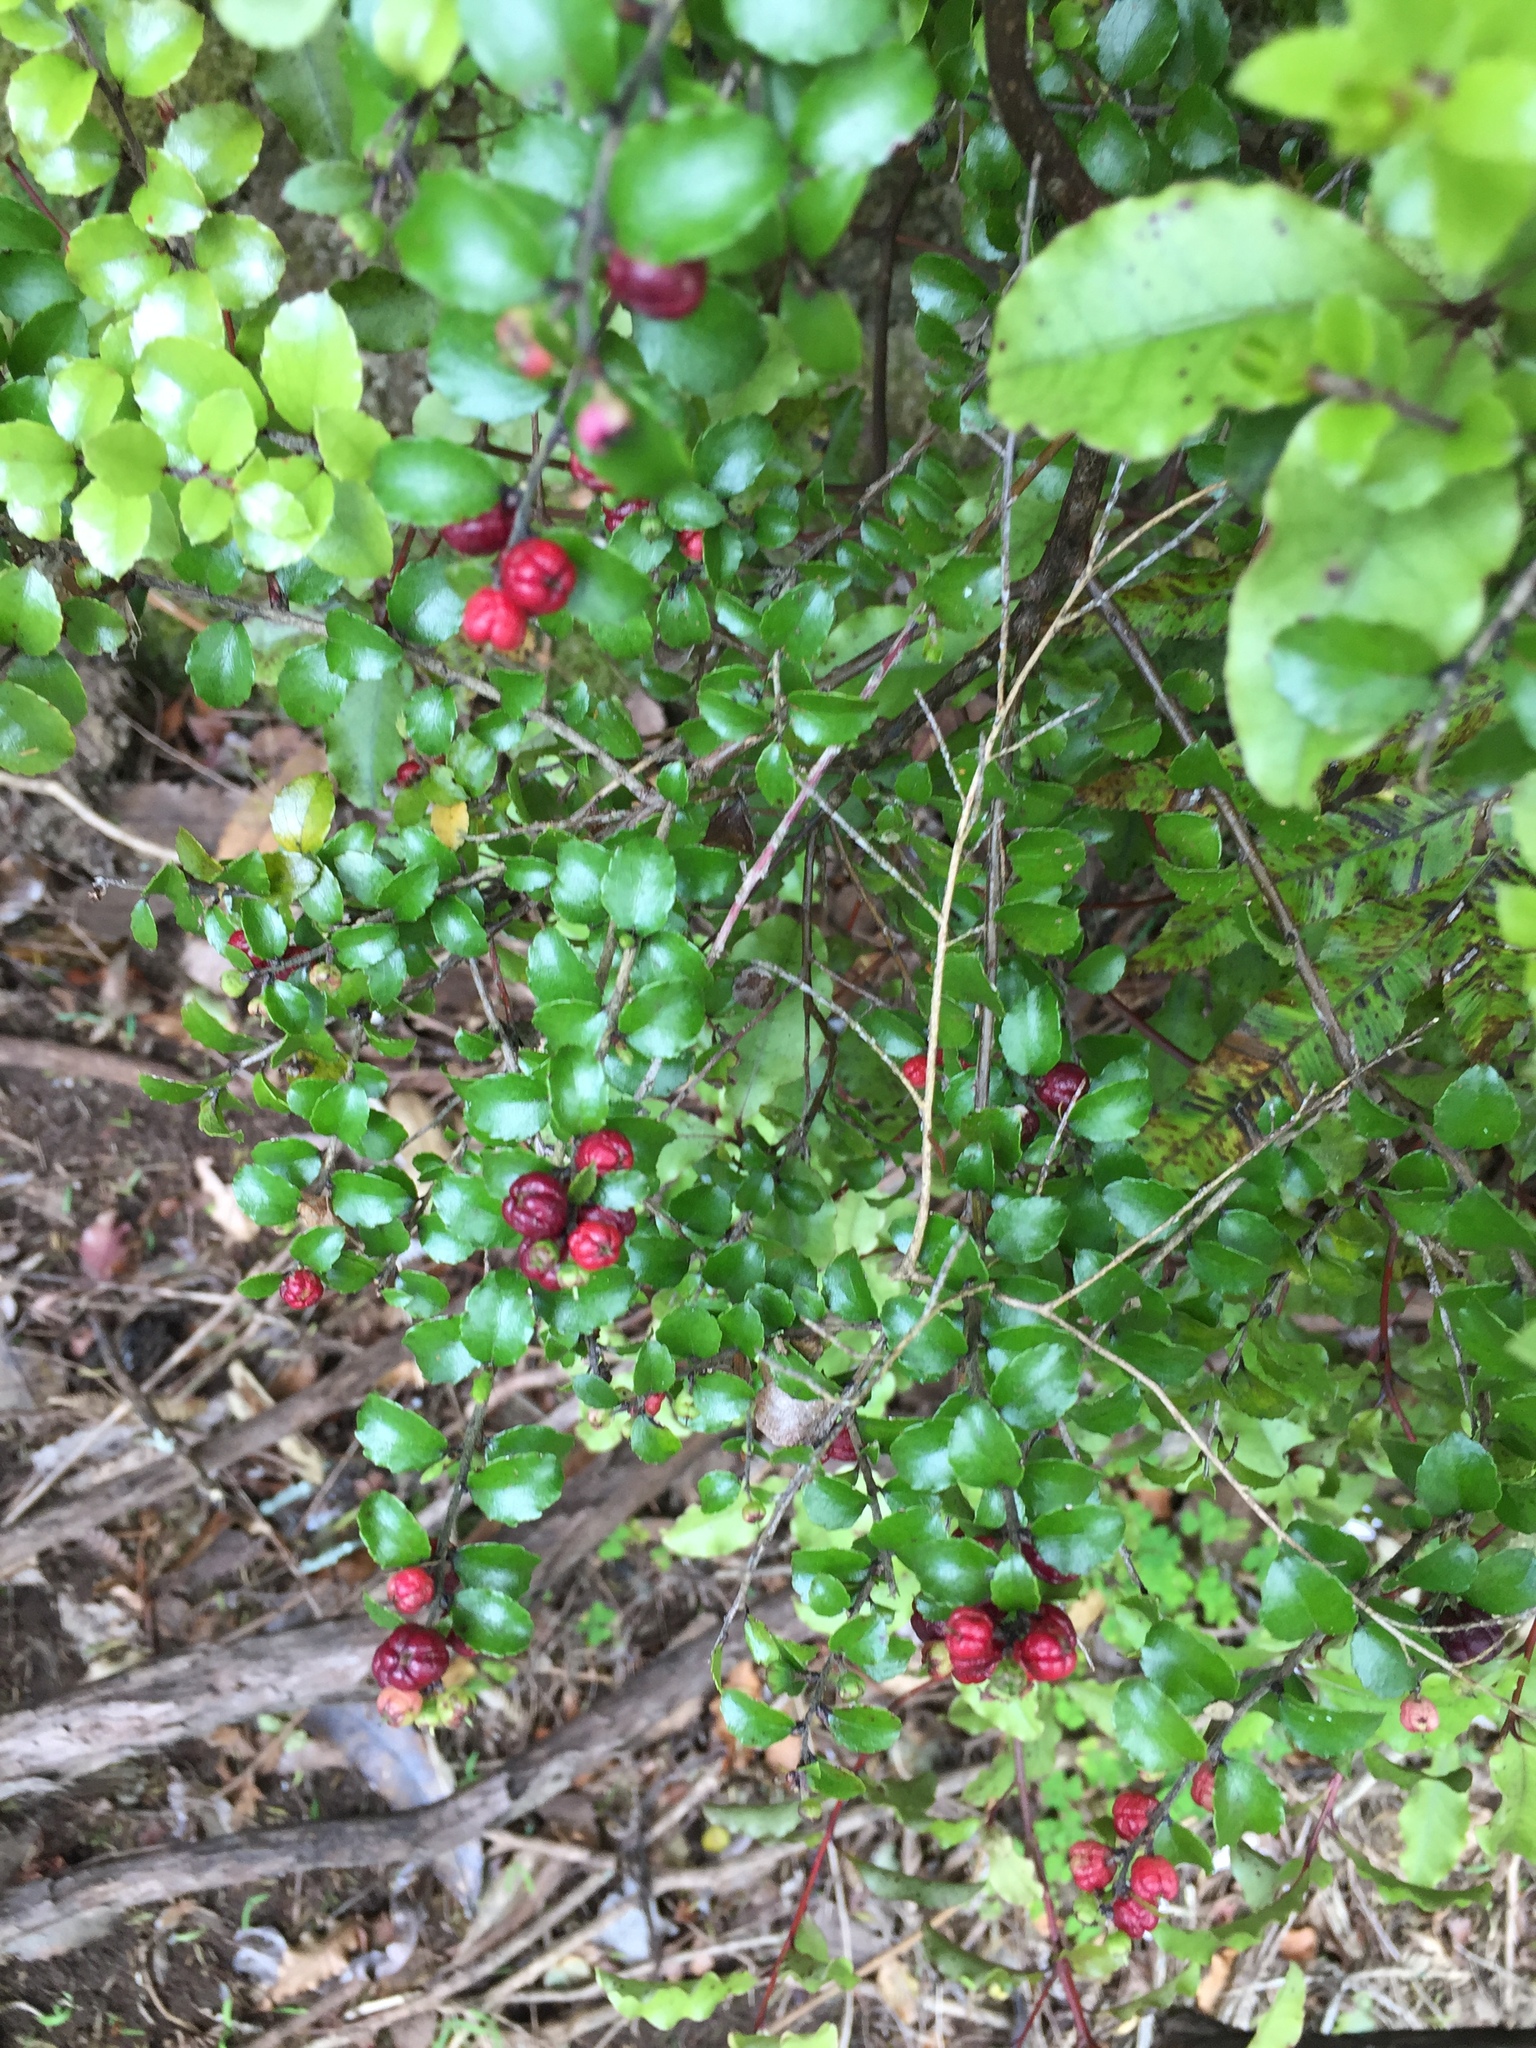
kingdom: Plantae
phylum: Tracheophyta
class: Magnoliopsida
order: Ericales
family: Ericaceae
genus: Gaultheria
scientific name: Gaultheria antipoda
